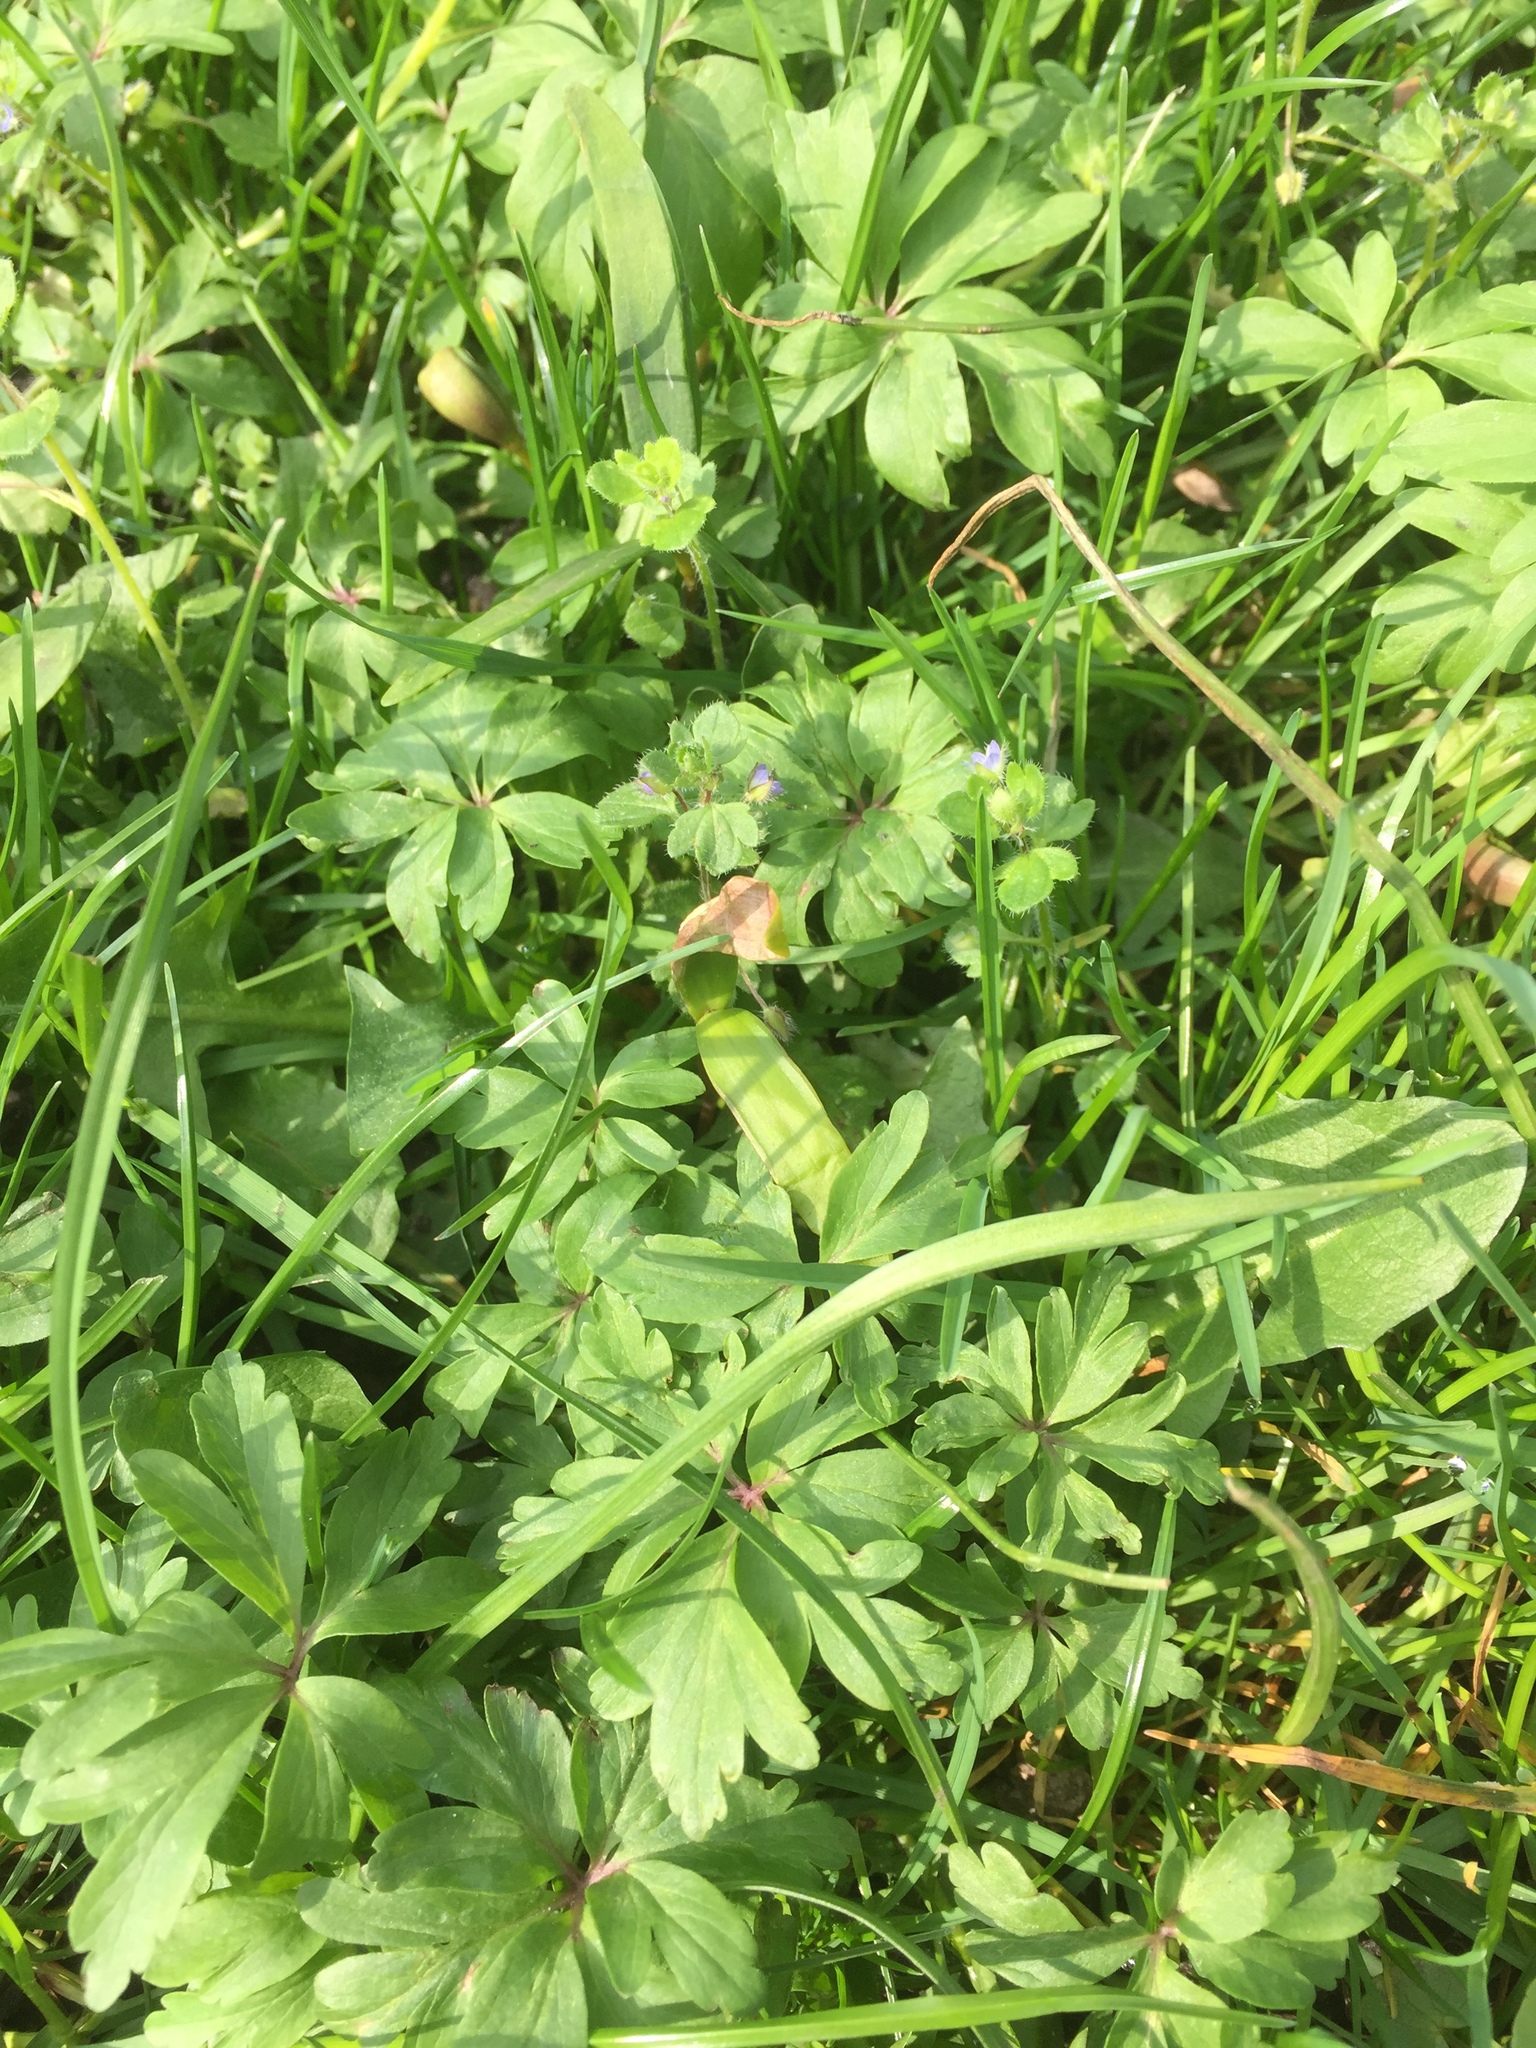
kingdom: Plantae
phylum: Tracheophyta
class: Magnoliopsida
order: Ranunculales
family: Ranunculaceae
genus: Anemone
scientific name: Anemone ranunculoides
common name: Yellow anemone
